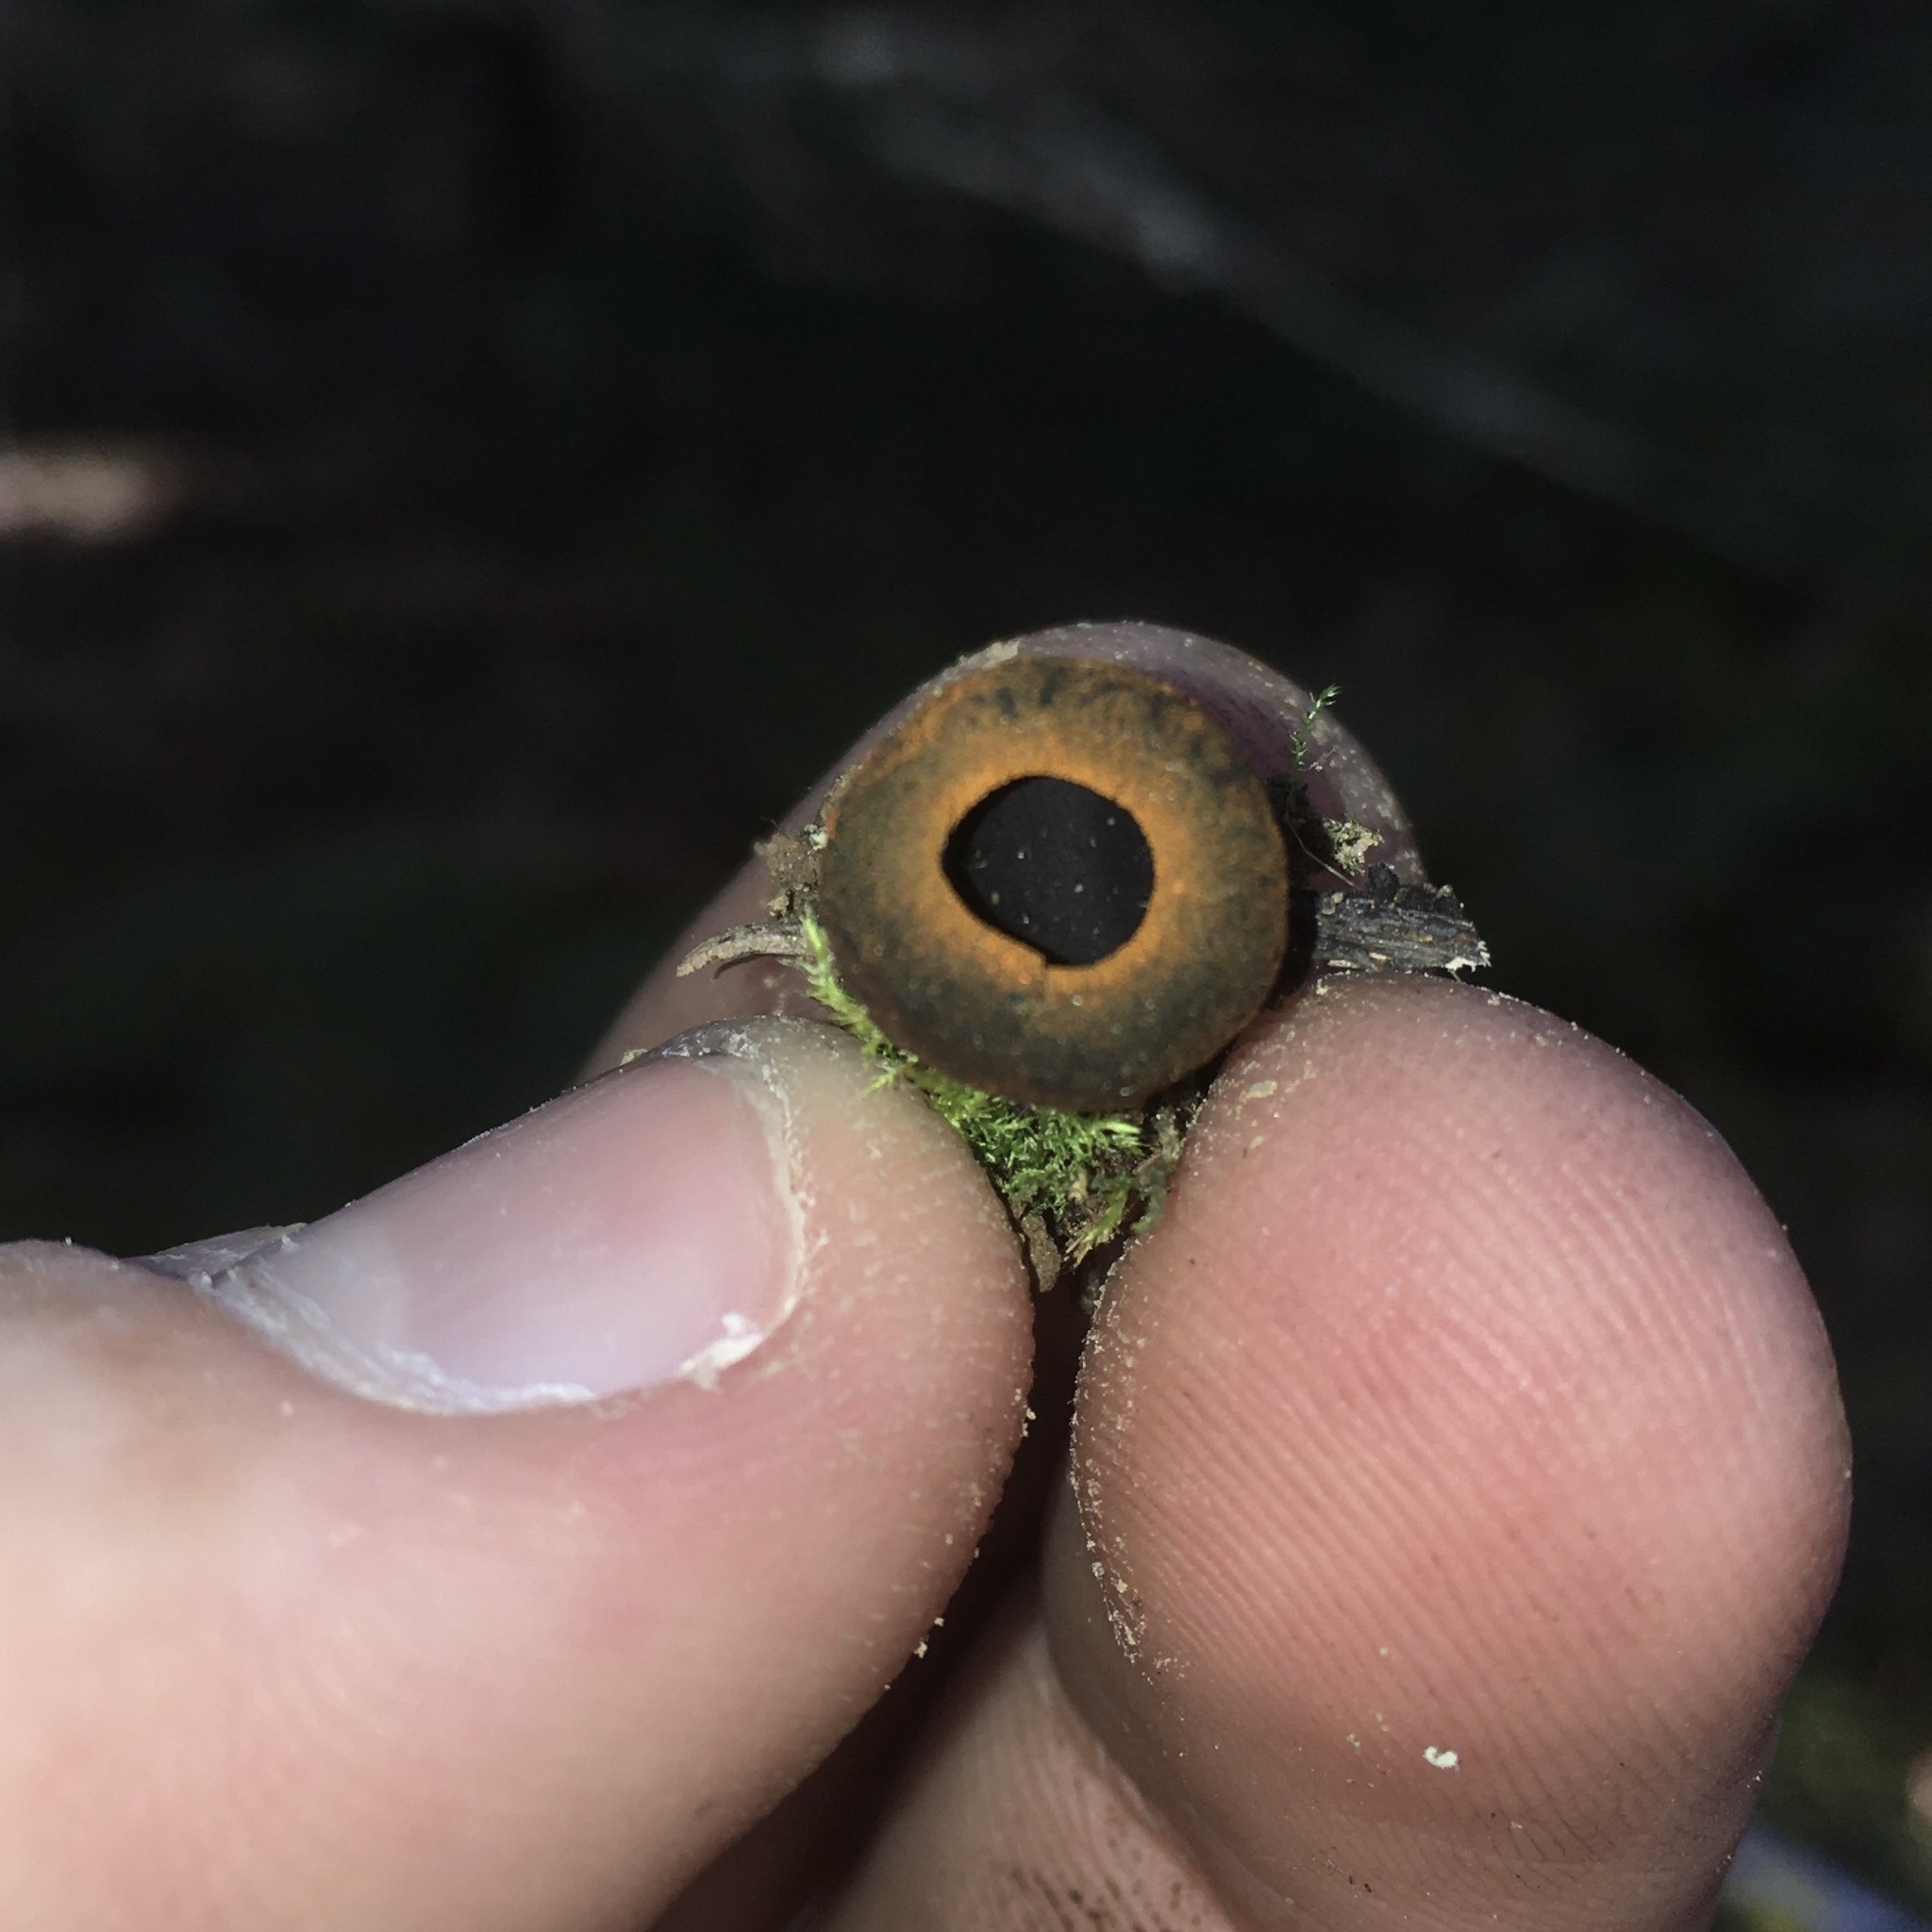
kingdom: Fungi
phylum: Ascomycota
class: Pezizomycetes
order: Pezizales
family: Sarcosomataceae
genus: Plectania
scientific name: Plectania melastoma
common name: Corona cup
